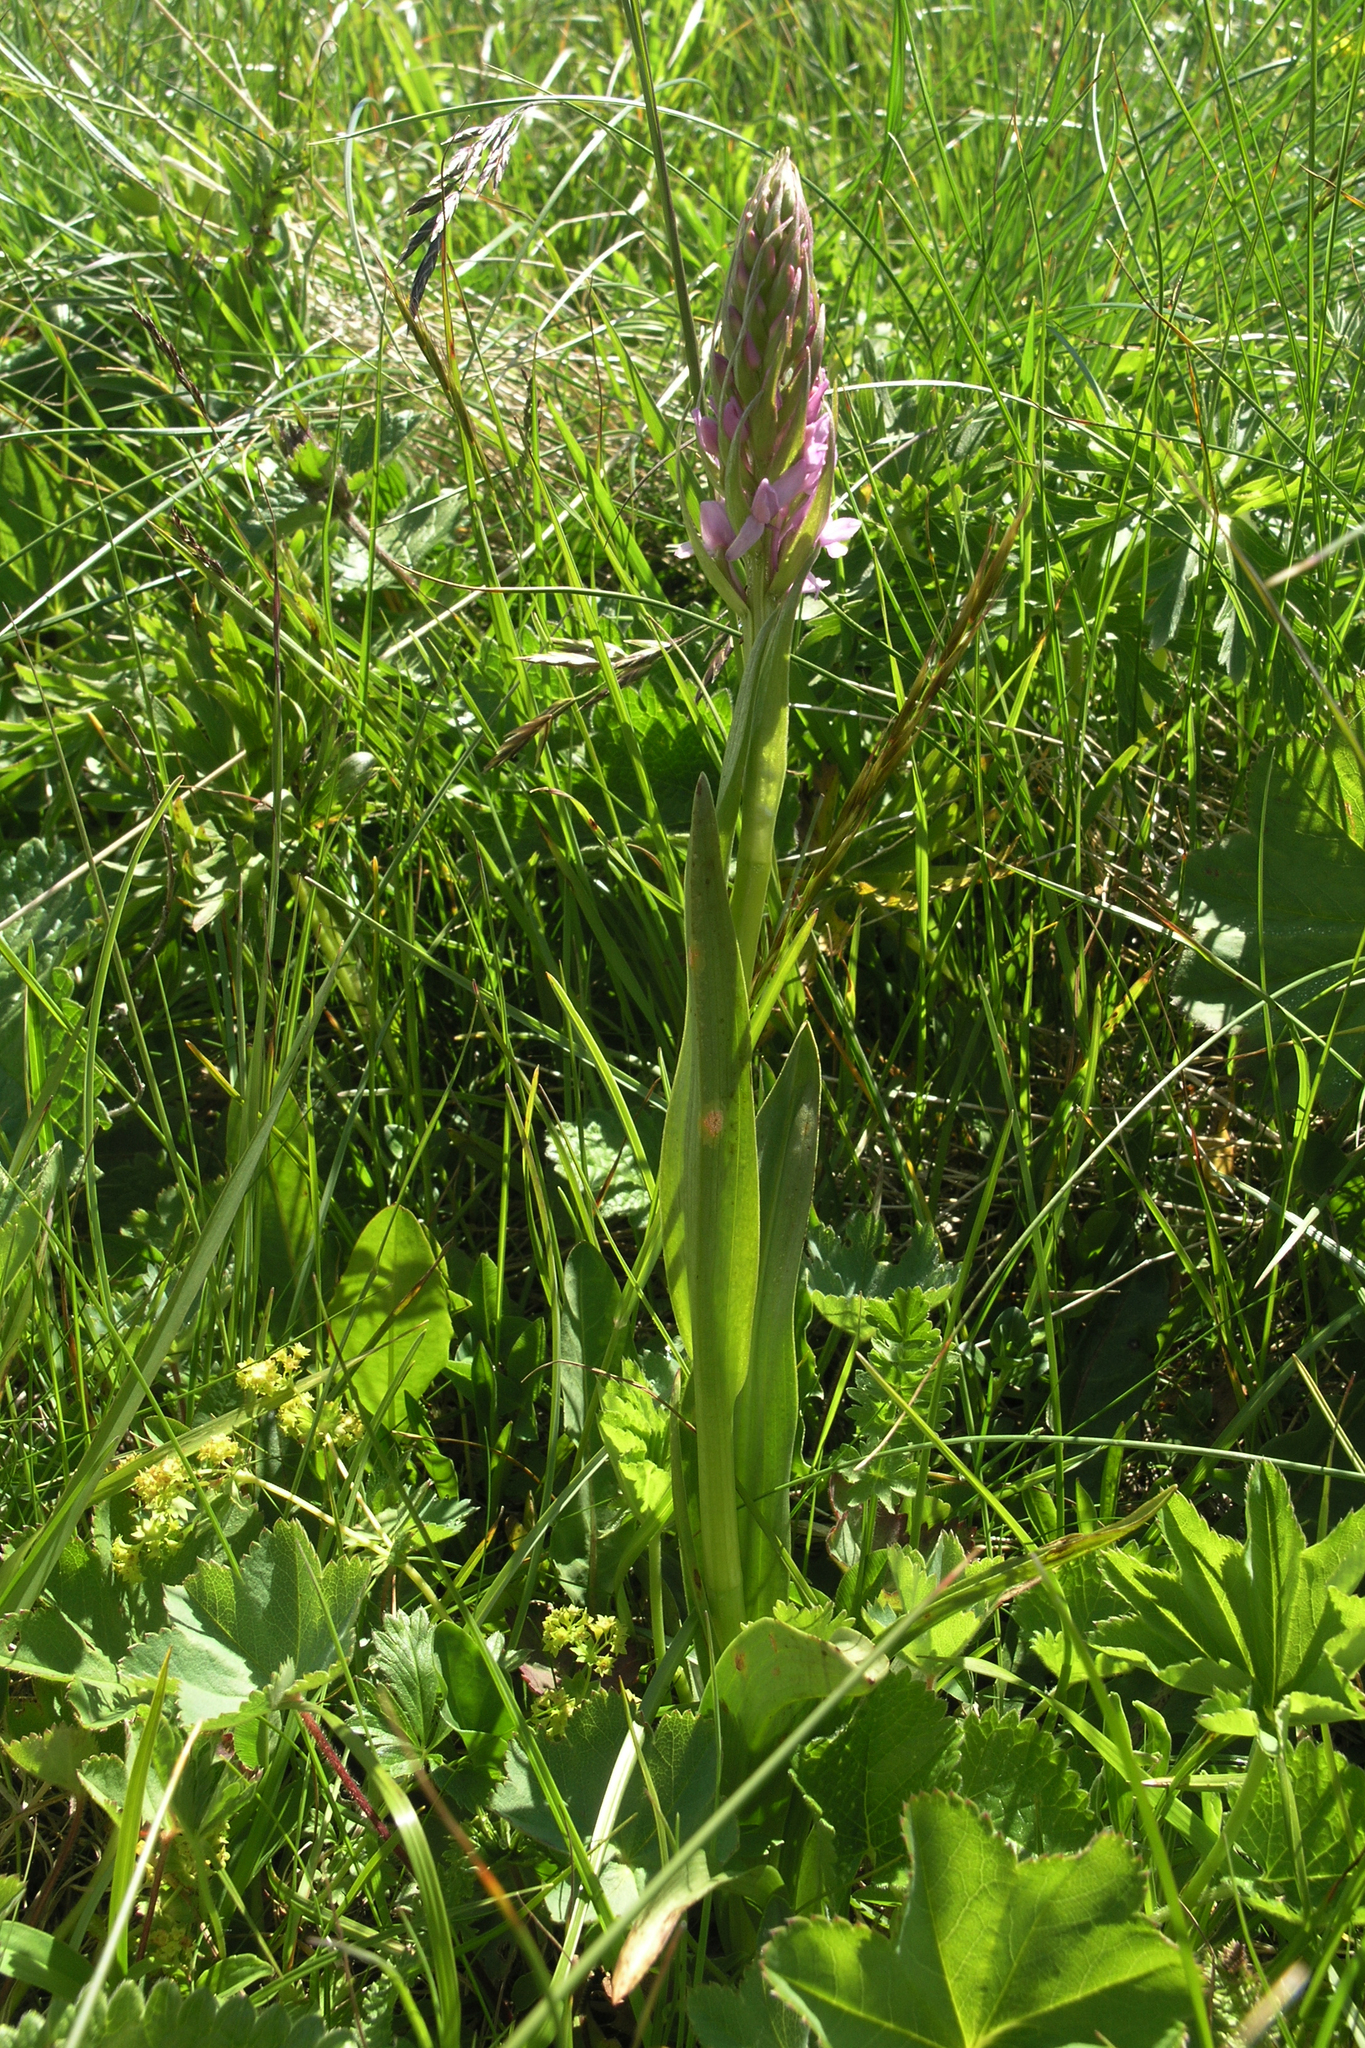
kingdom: Plantae
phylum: Tracheophyta
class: Liliopsida
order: Asparagales
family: Orchidaceae
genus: Gymnadenia
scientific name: Gymnadenia conopsea
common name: Fragrant orchid
